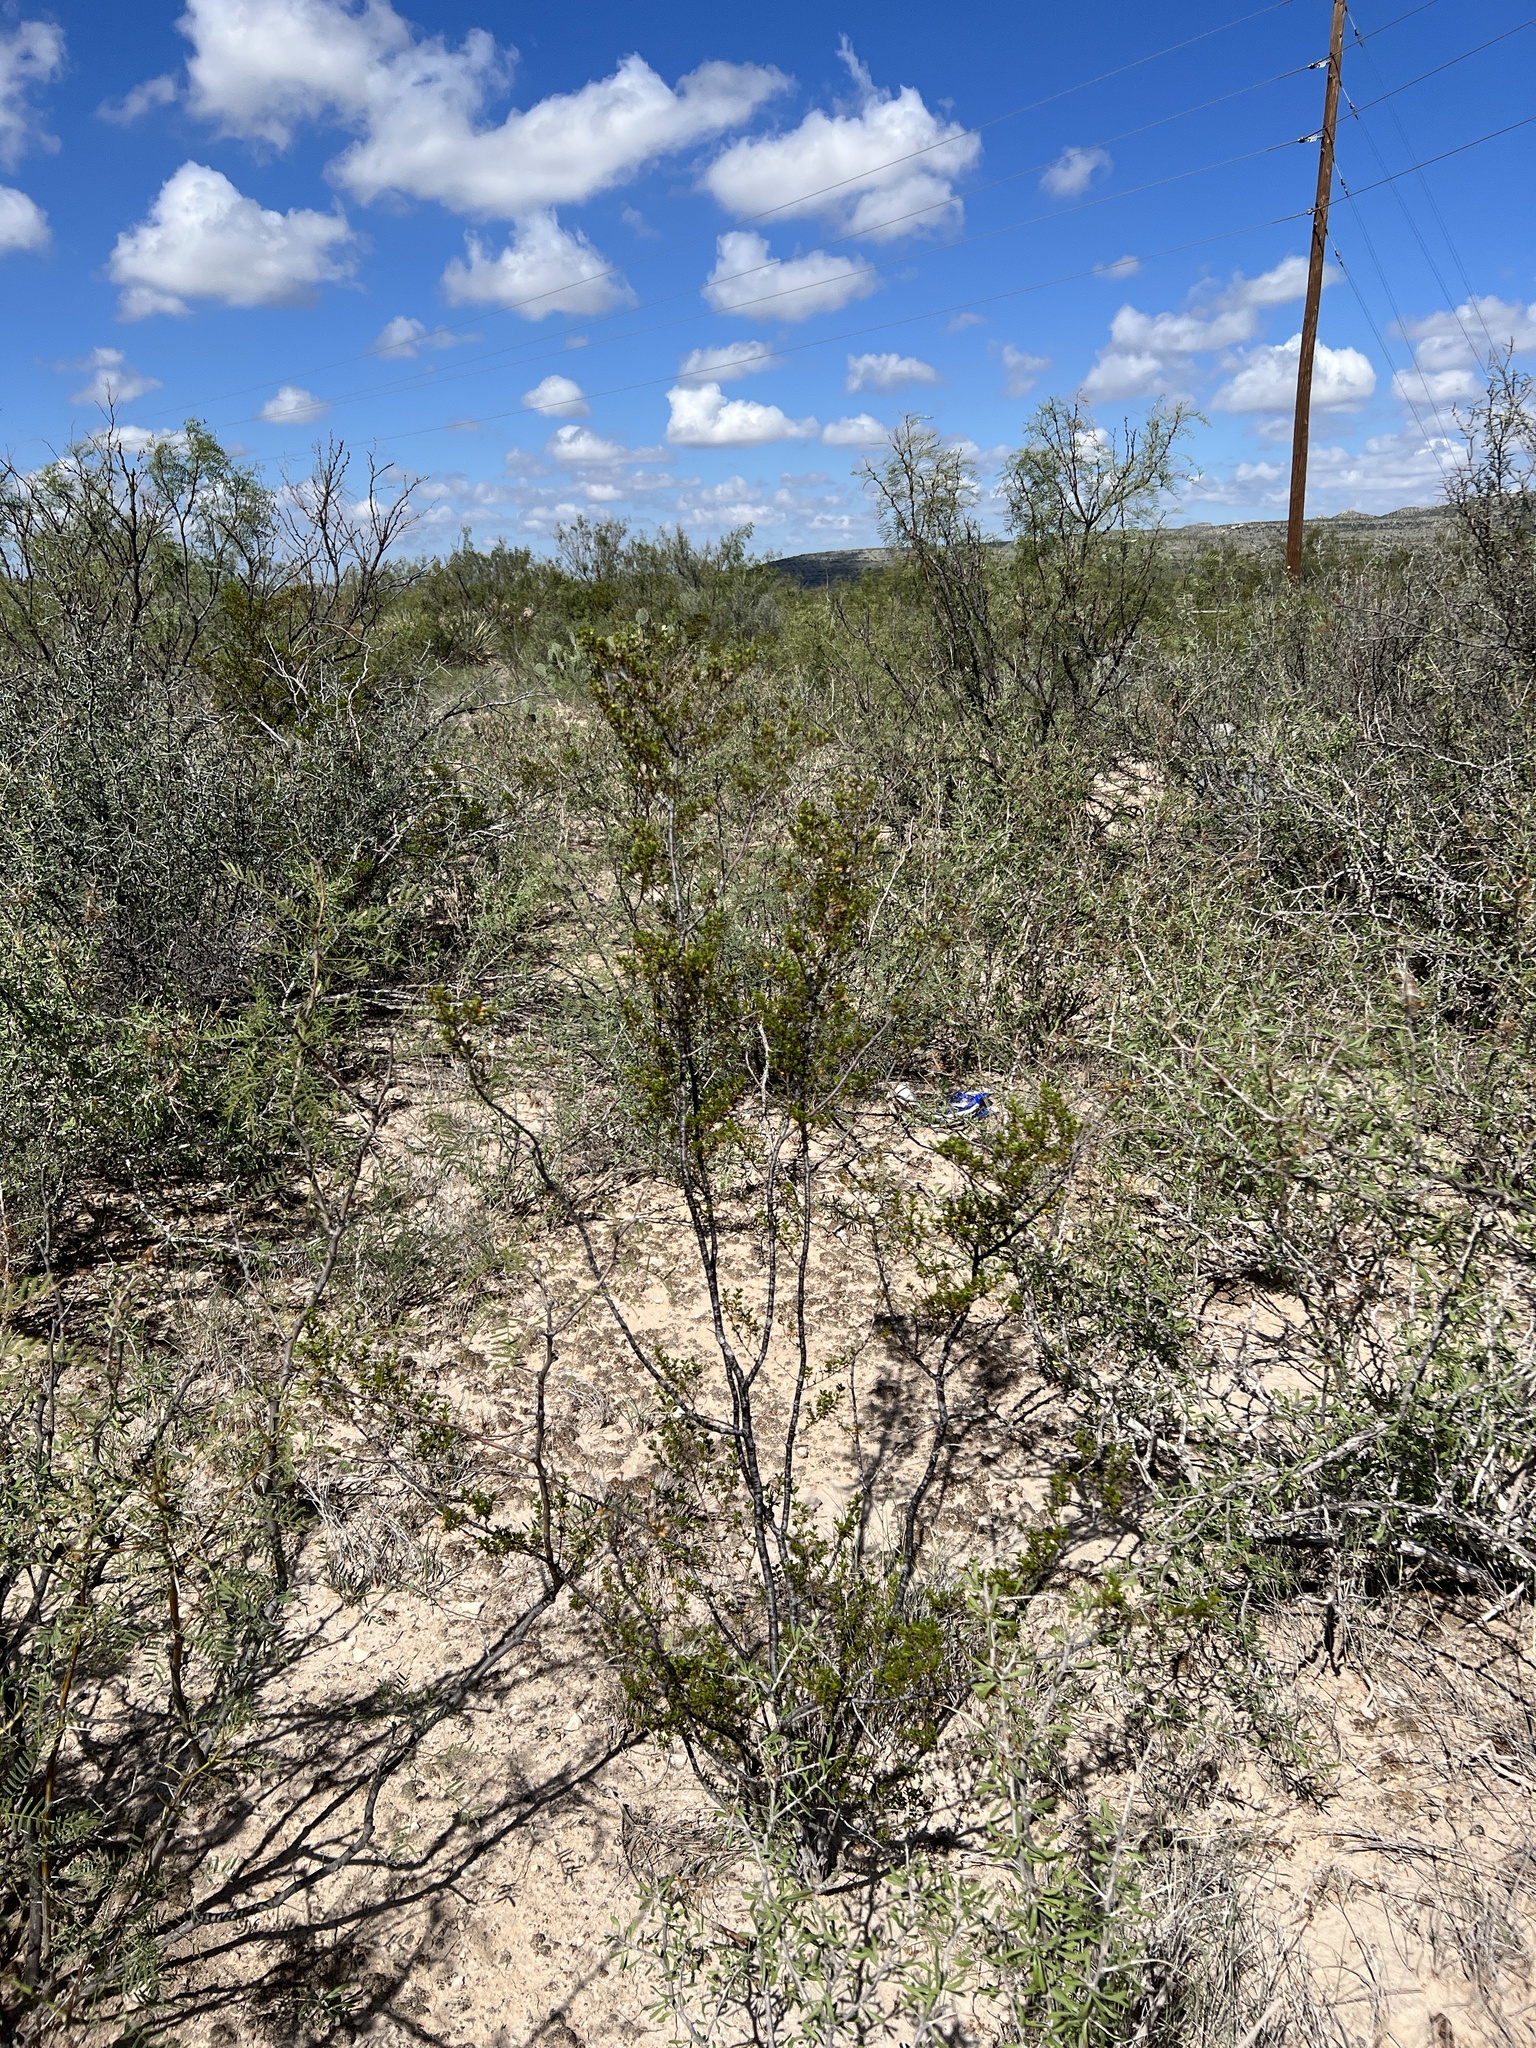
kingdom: Plantae
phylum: Tracheophyta
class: Magnoliopsida
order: Zygophyllales
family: Zygophyllaceae
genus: Larrea
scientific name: Larrea tridentata
